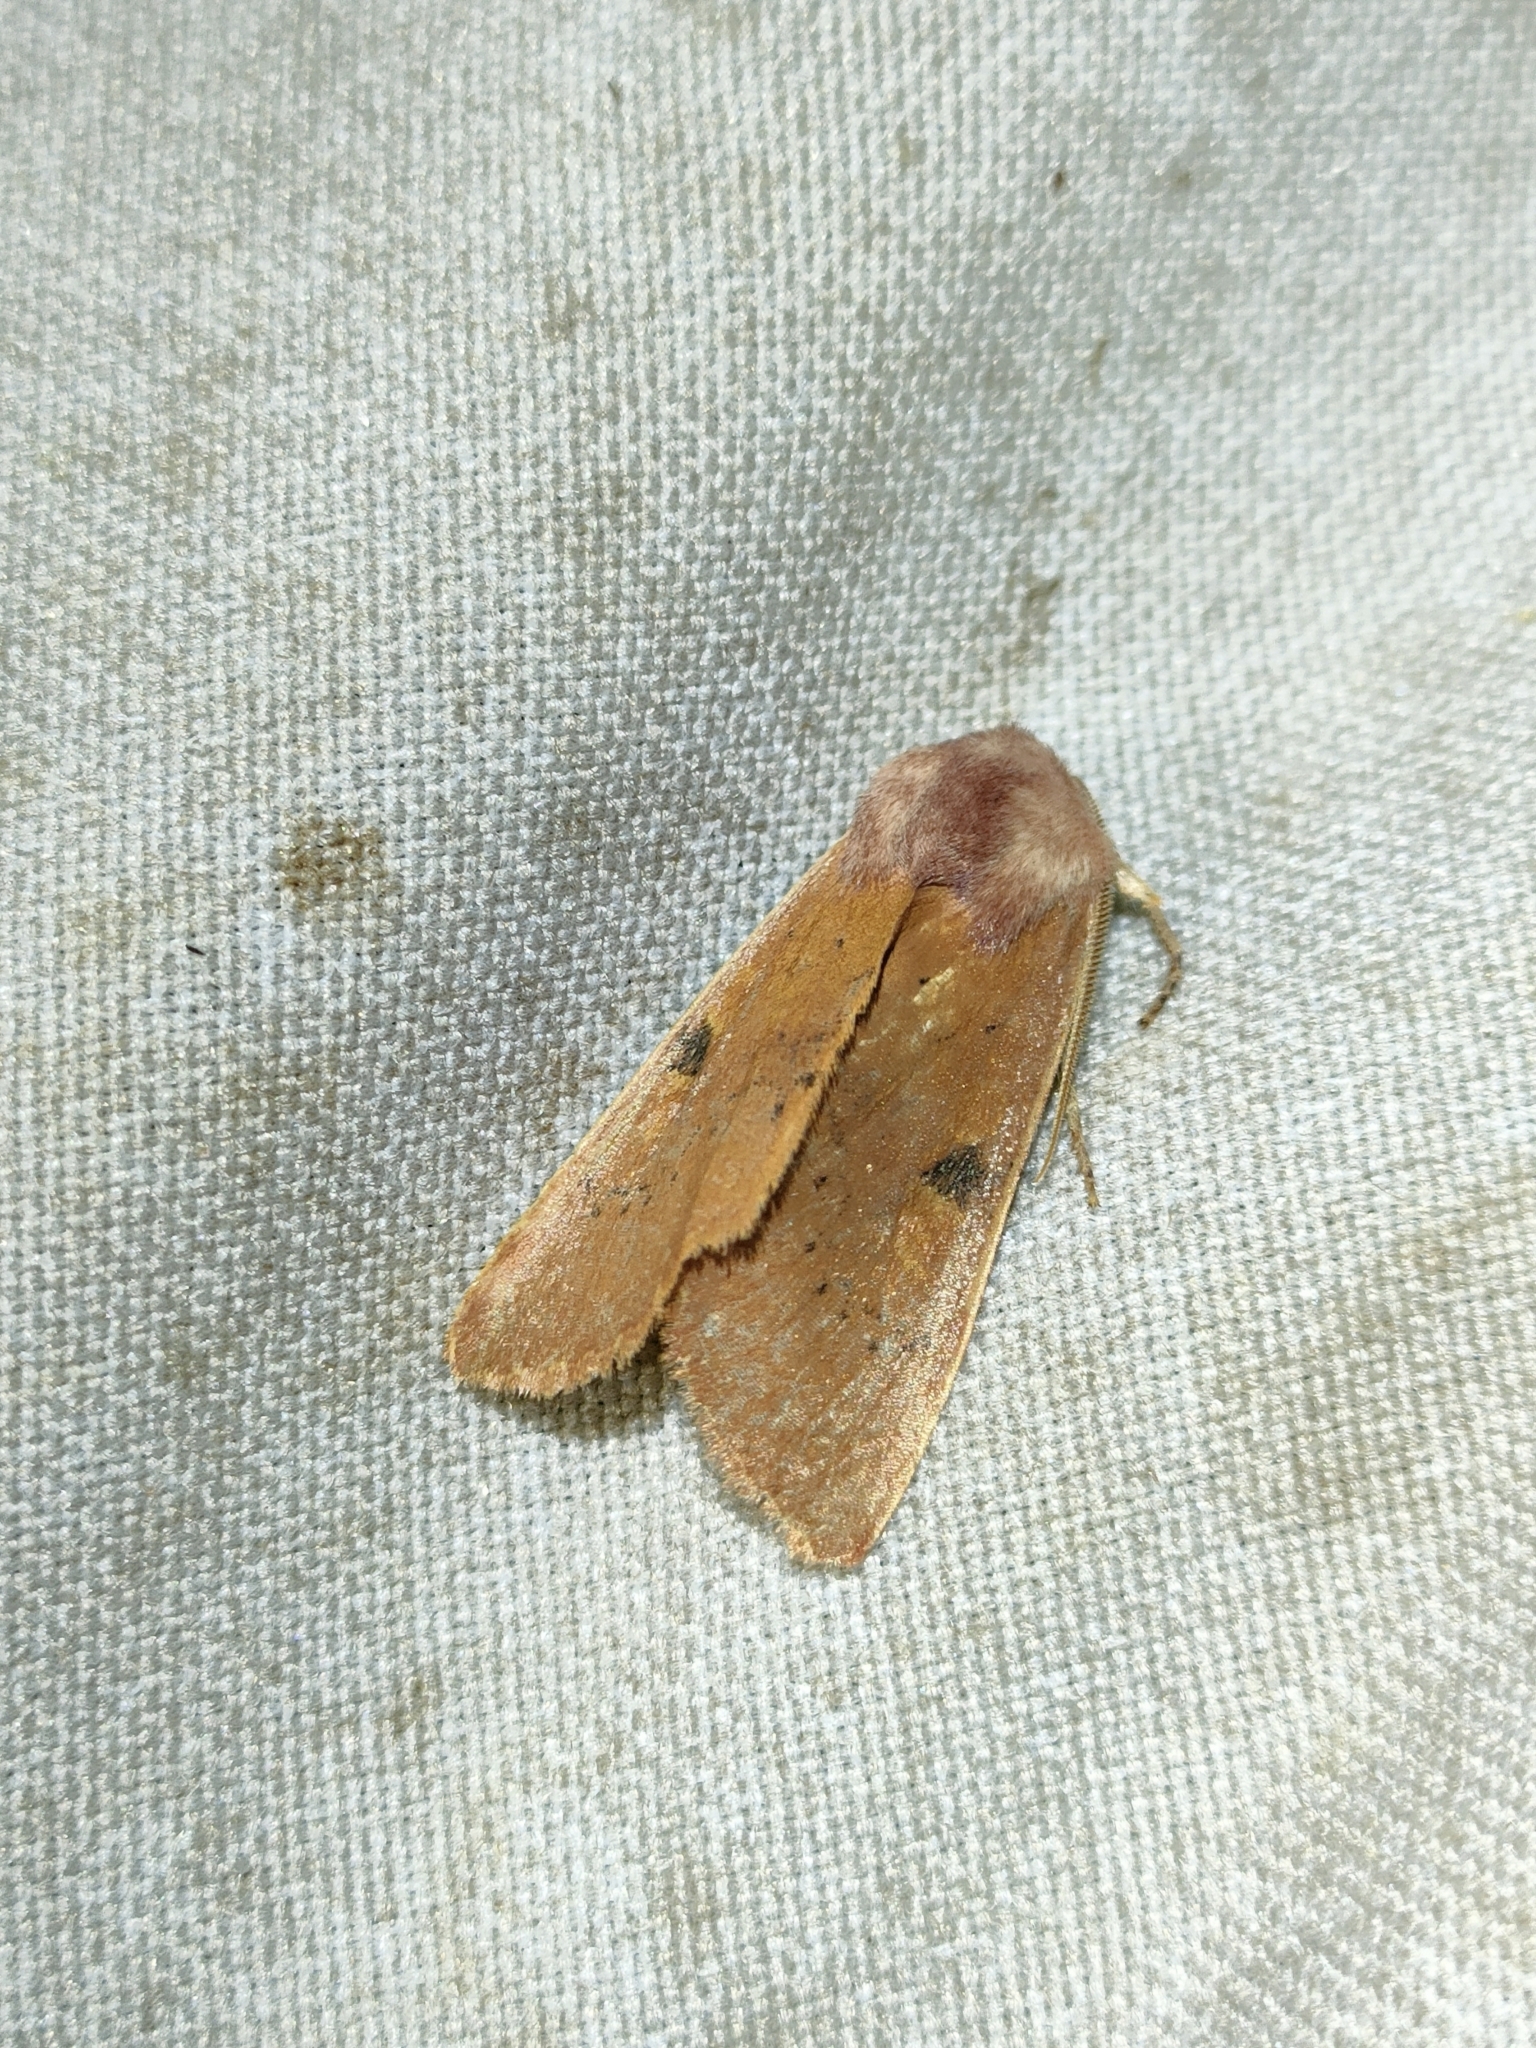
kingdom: Animalia
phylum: Arthropoda
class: Insecta
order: Lepidoptera
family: Noctuidae
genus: Ammopolia
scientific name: Ammopolia witzenmanni
